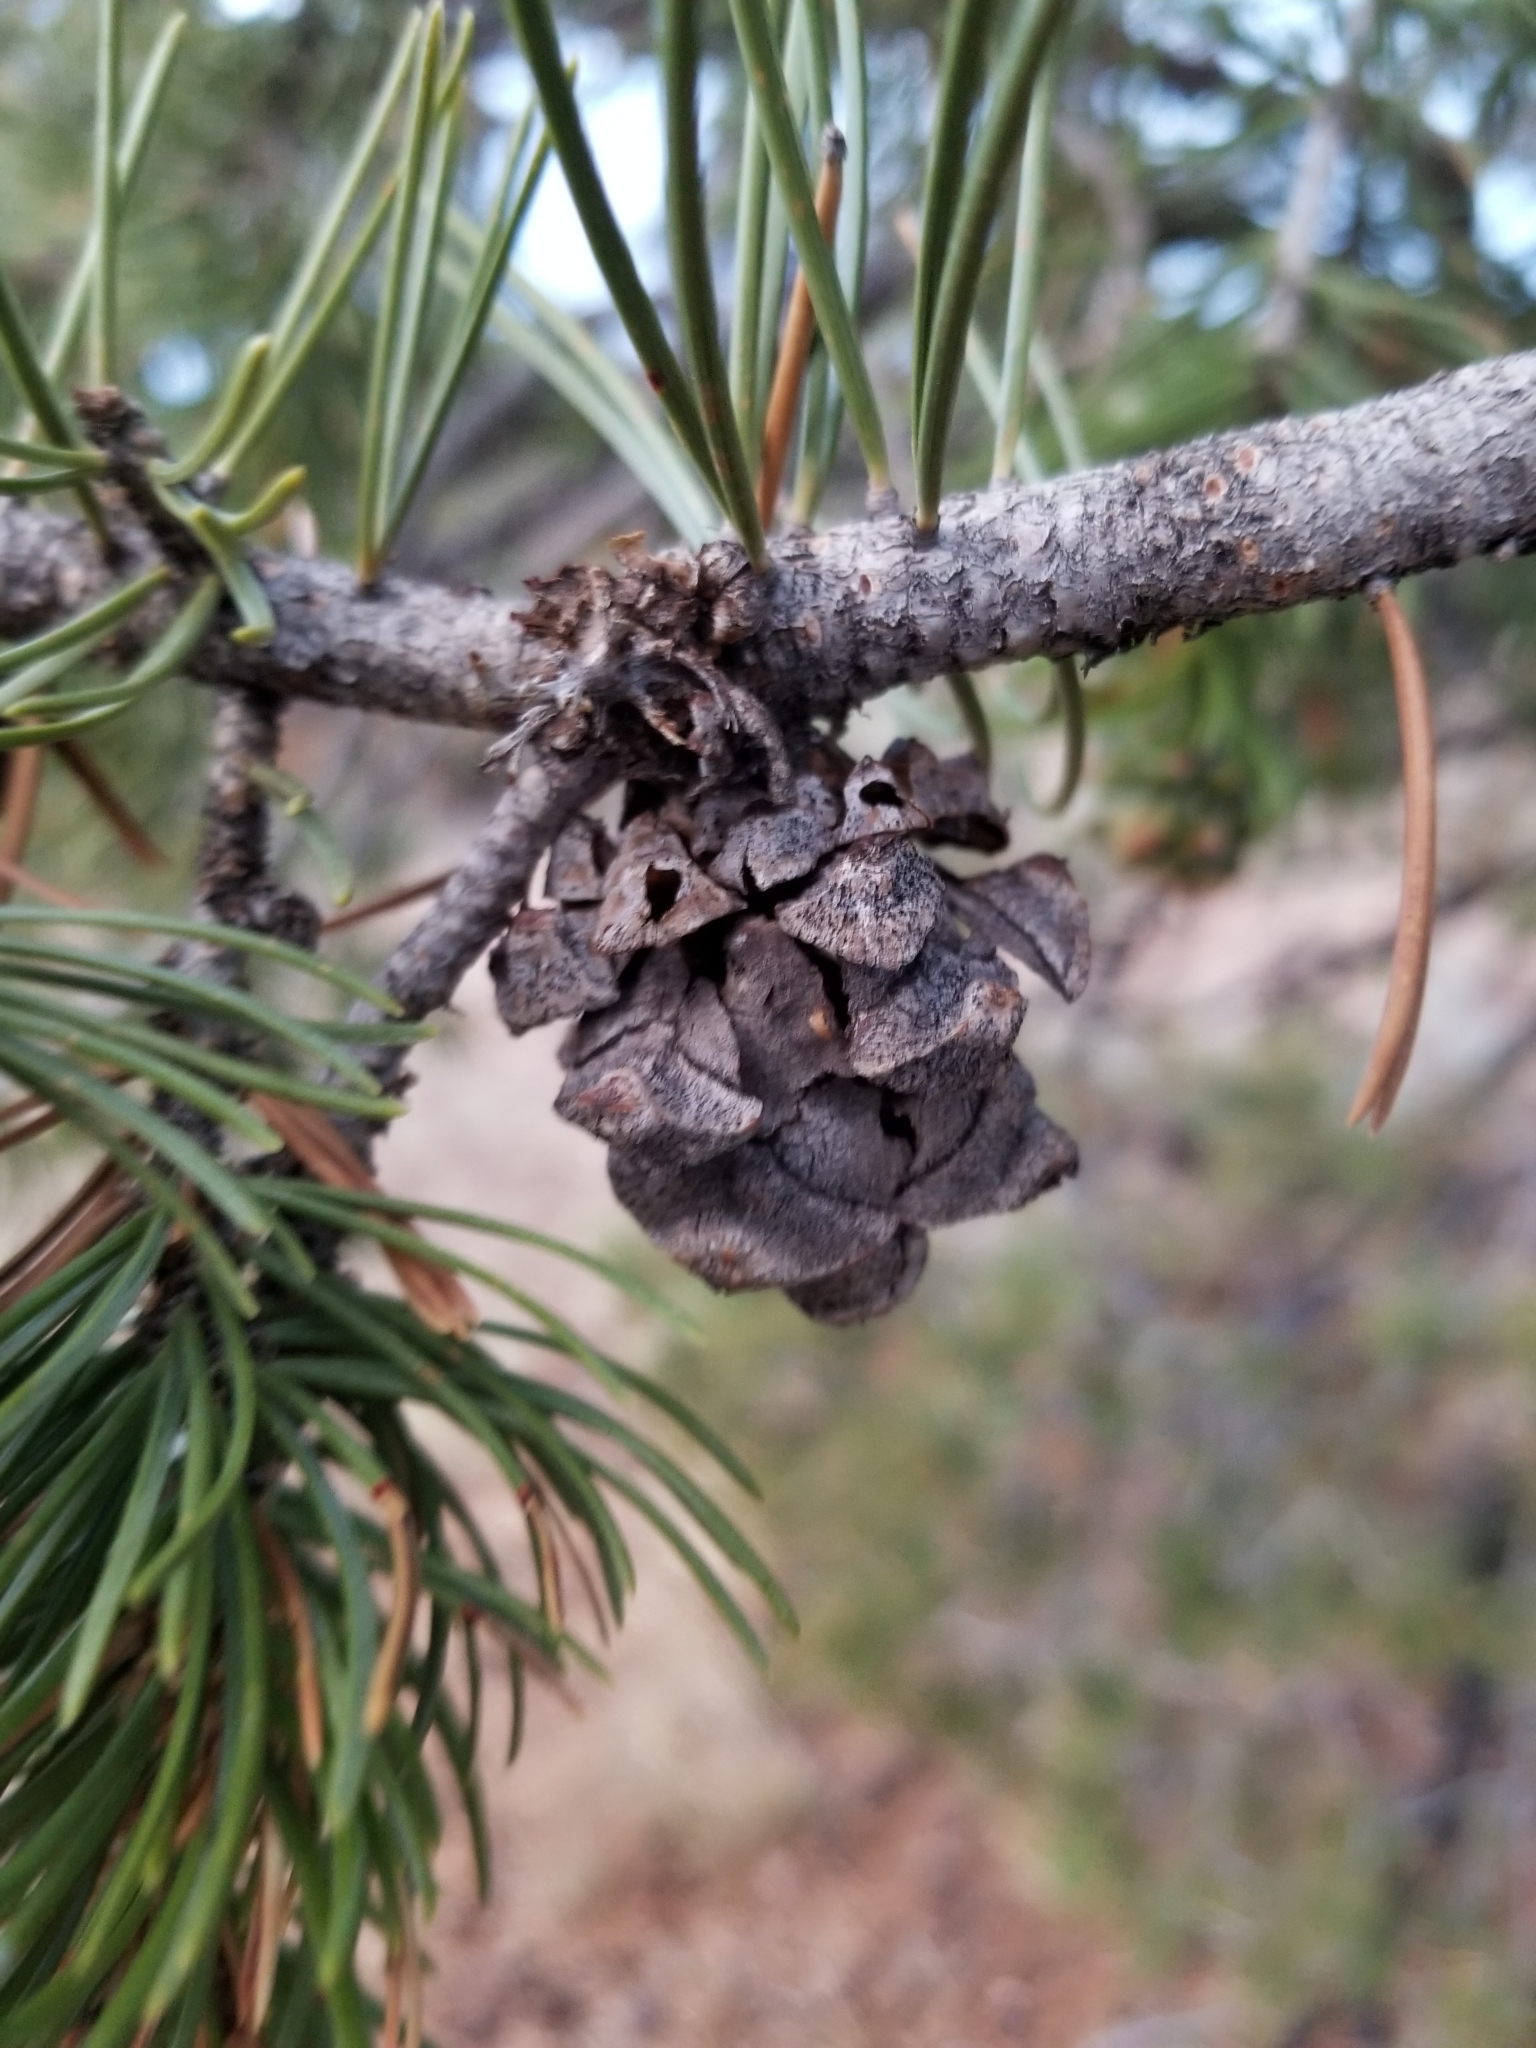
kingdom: Plantae
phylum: Tracheophyta
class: Pinopsida
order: Pinales
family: Pinaceae
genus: Pinus
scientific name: Pinus edulis
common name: Colorado pinyon
